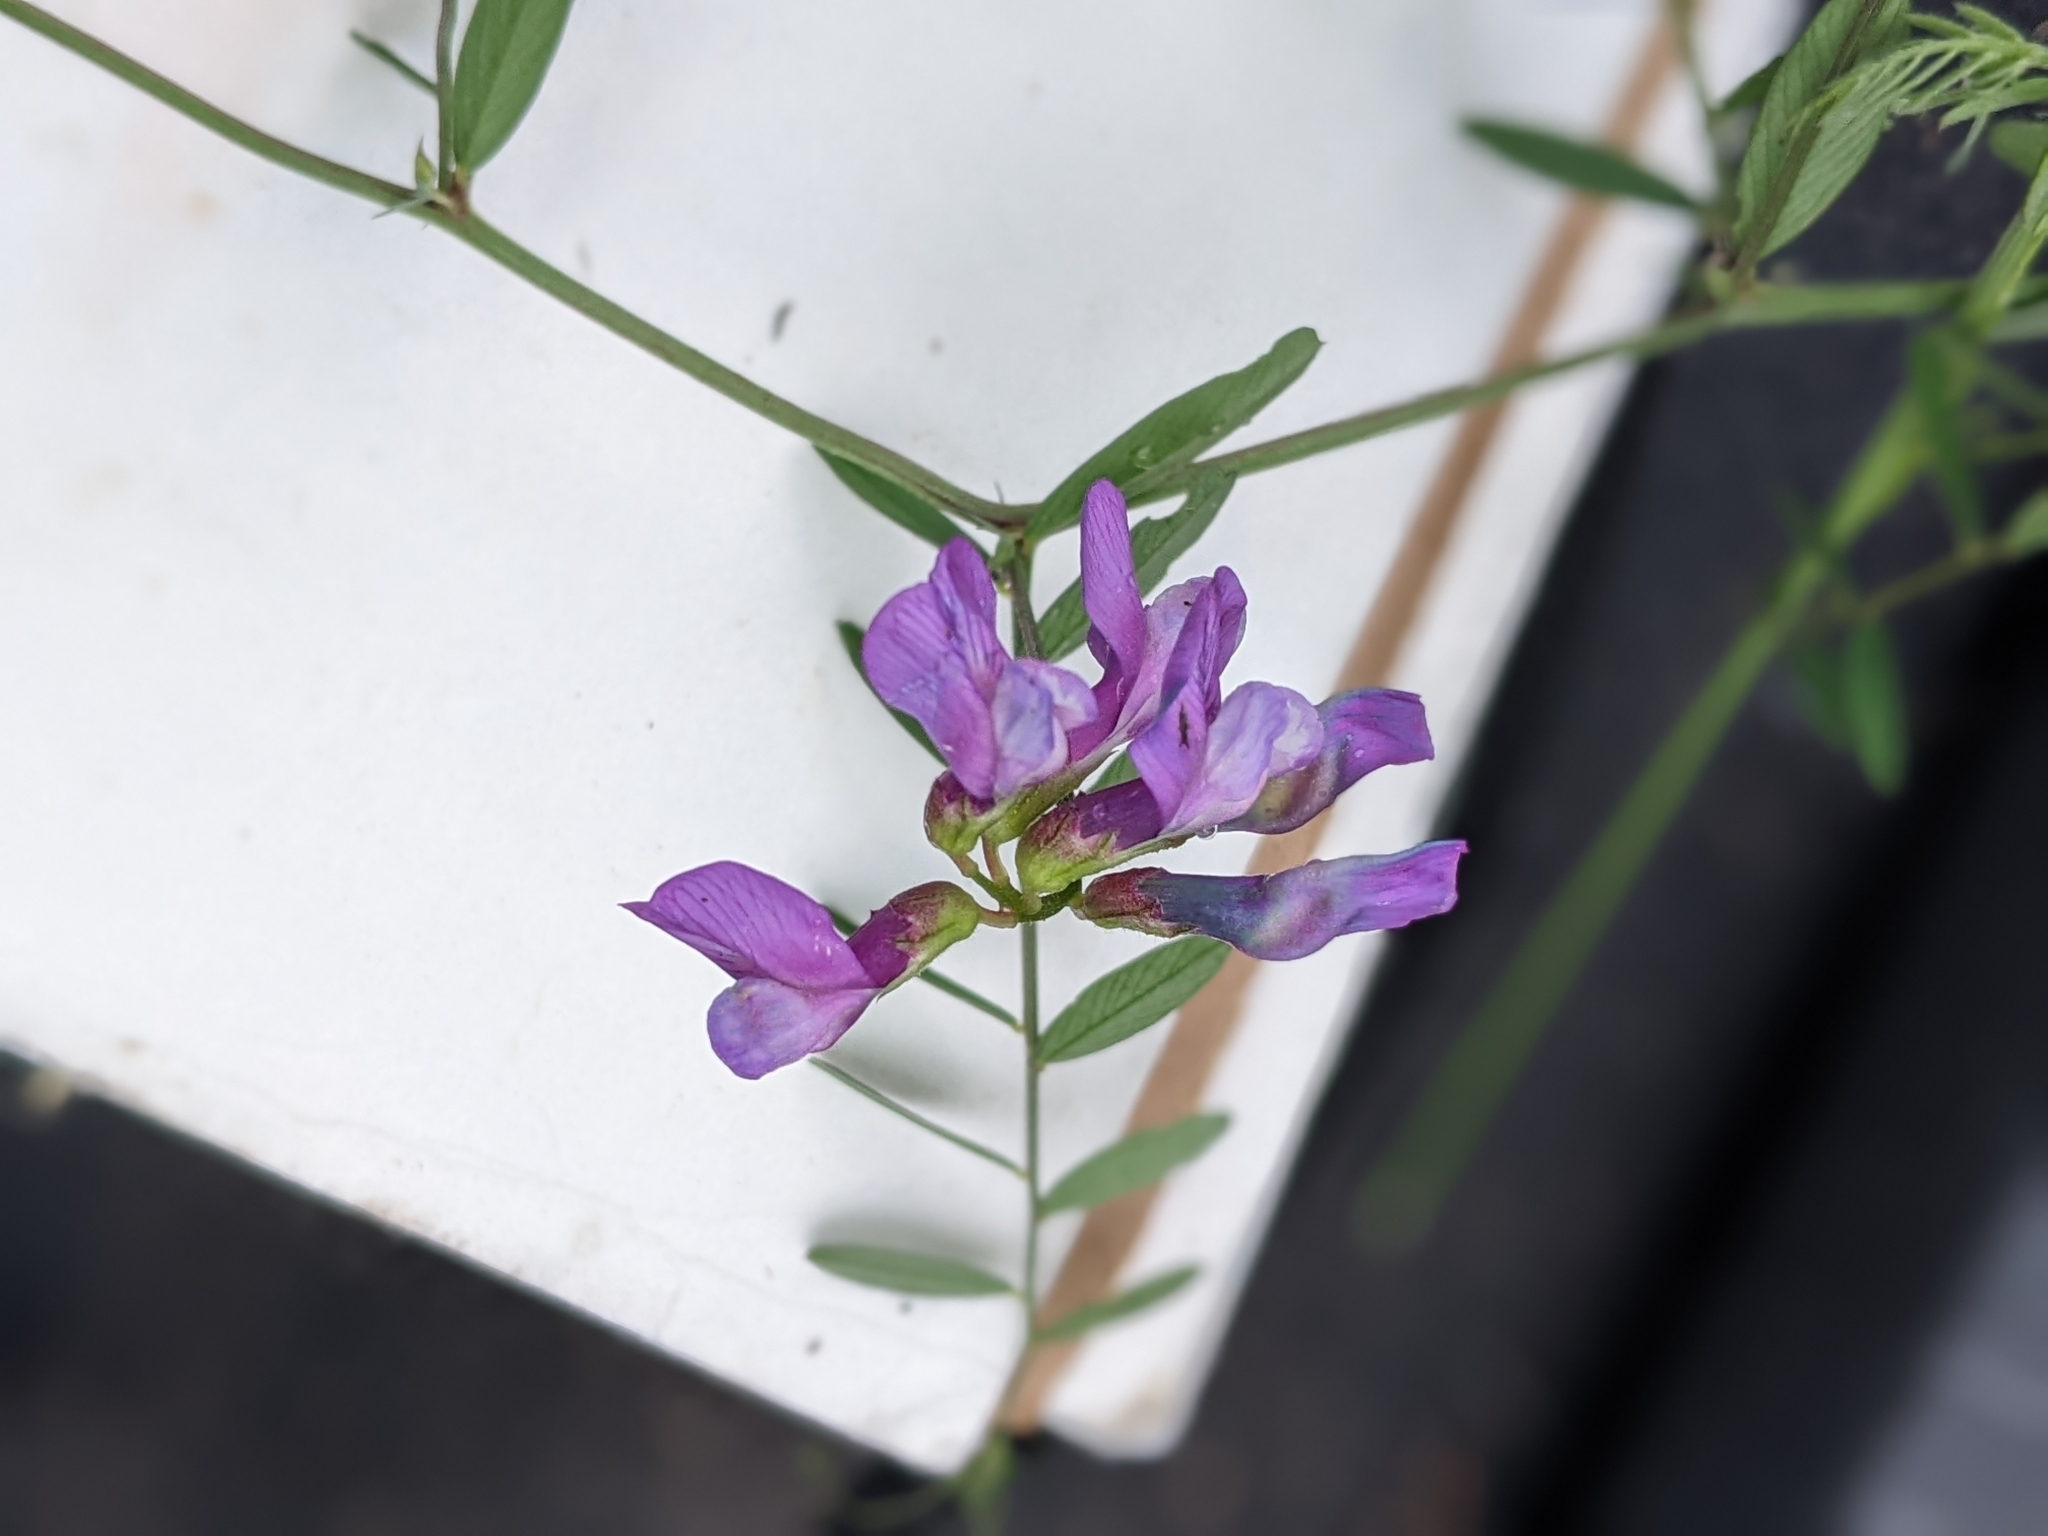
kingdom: Plantae
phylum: Tracheophyta
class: Magnoliopsida
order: Fabales
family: Fabaceae
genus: Vicia
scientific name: Vicia americana
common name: American vetch
